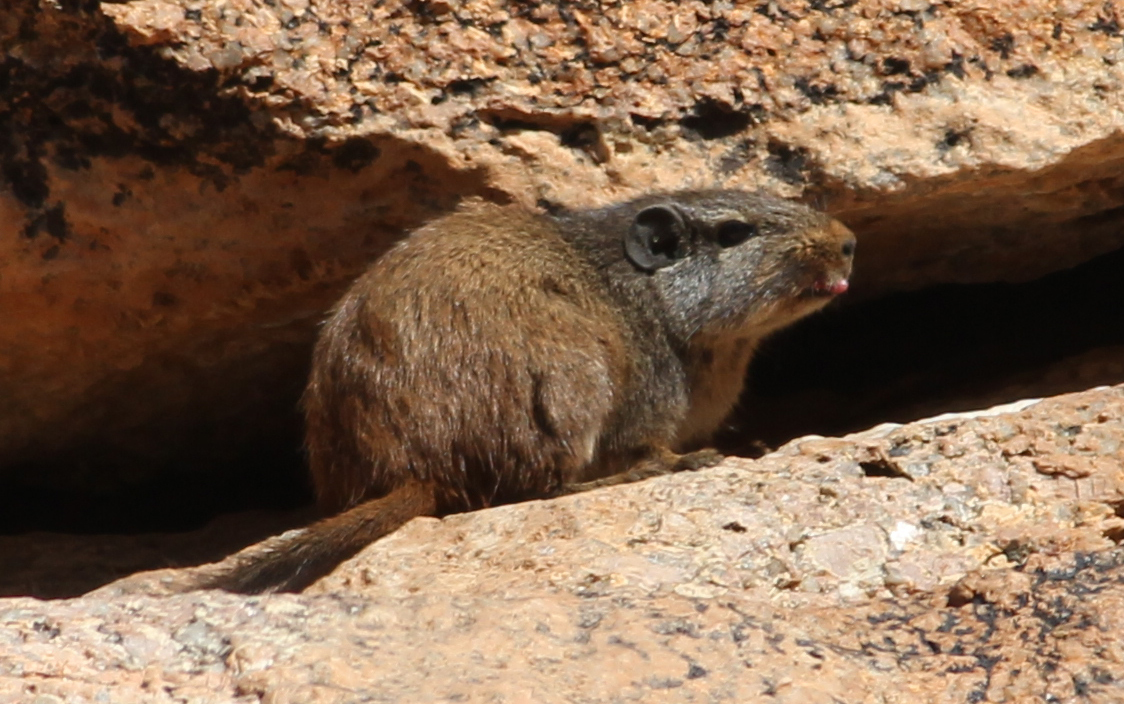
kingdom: Animalia
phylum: Chordata
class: Mammalia
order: Rodentia
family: Petromuridae
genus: Petromus
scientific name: Petromus typicus
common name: Dassie rat
